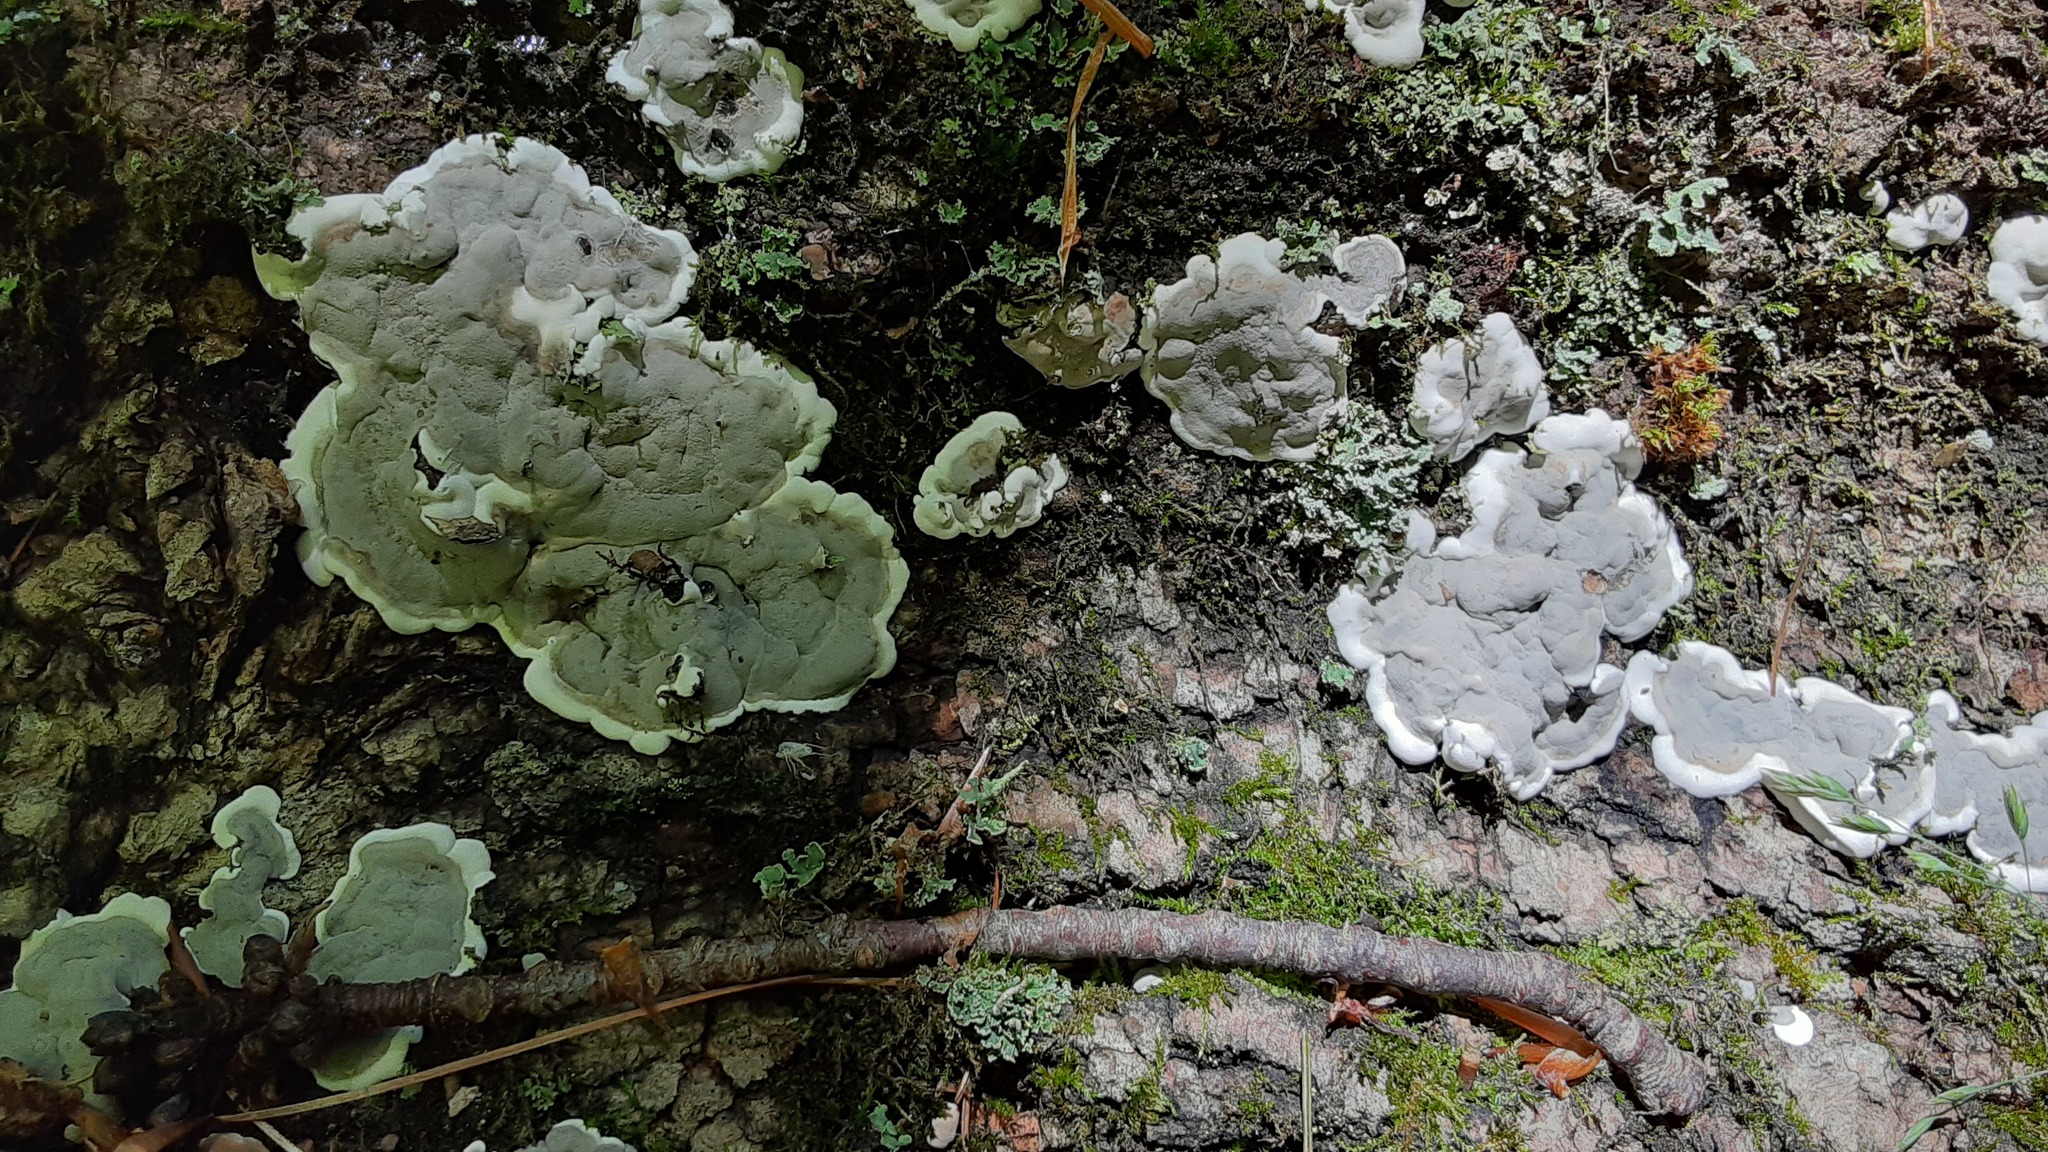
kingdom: Fungi
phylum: Ascomycota
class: Sordariomycetes
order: Xylariales
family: Xylariaceae
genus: Kretzschmaria
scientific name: Kretzschmaria deusta
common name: Brittle cinder
